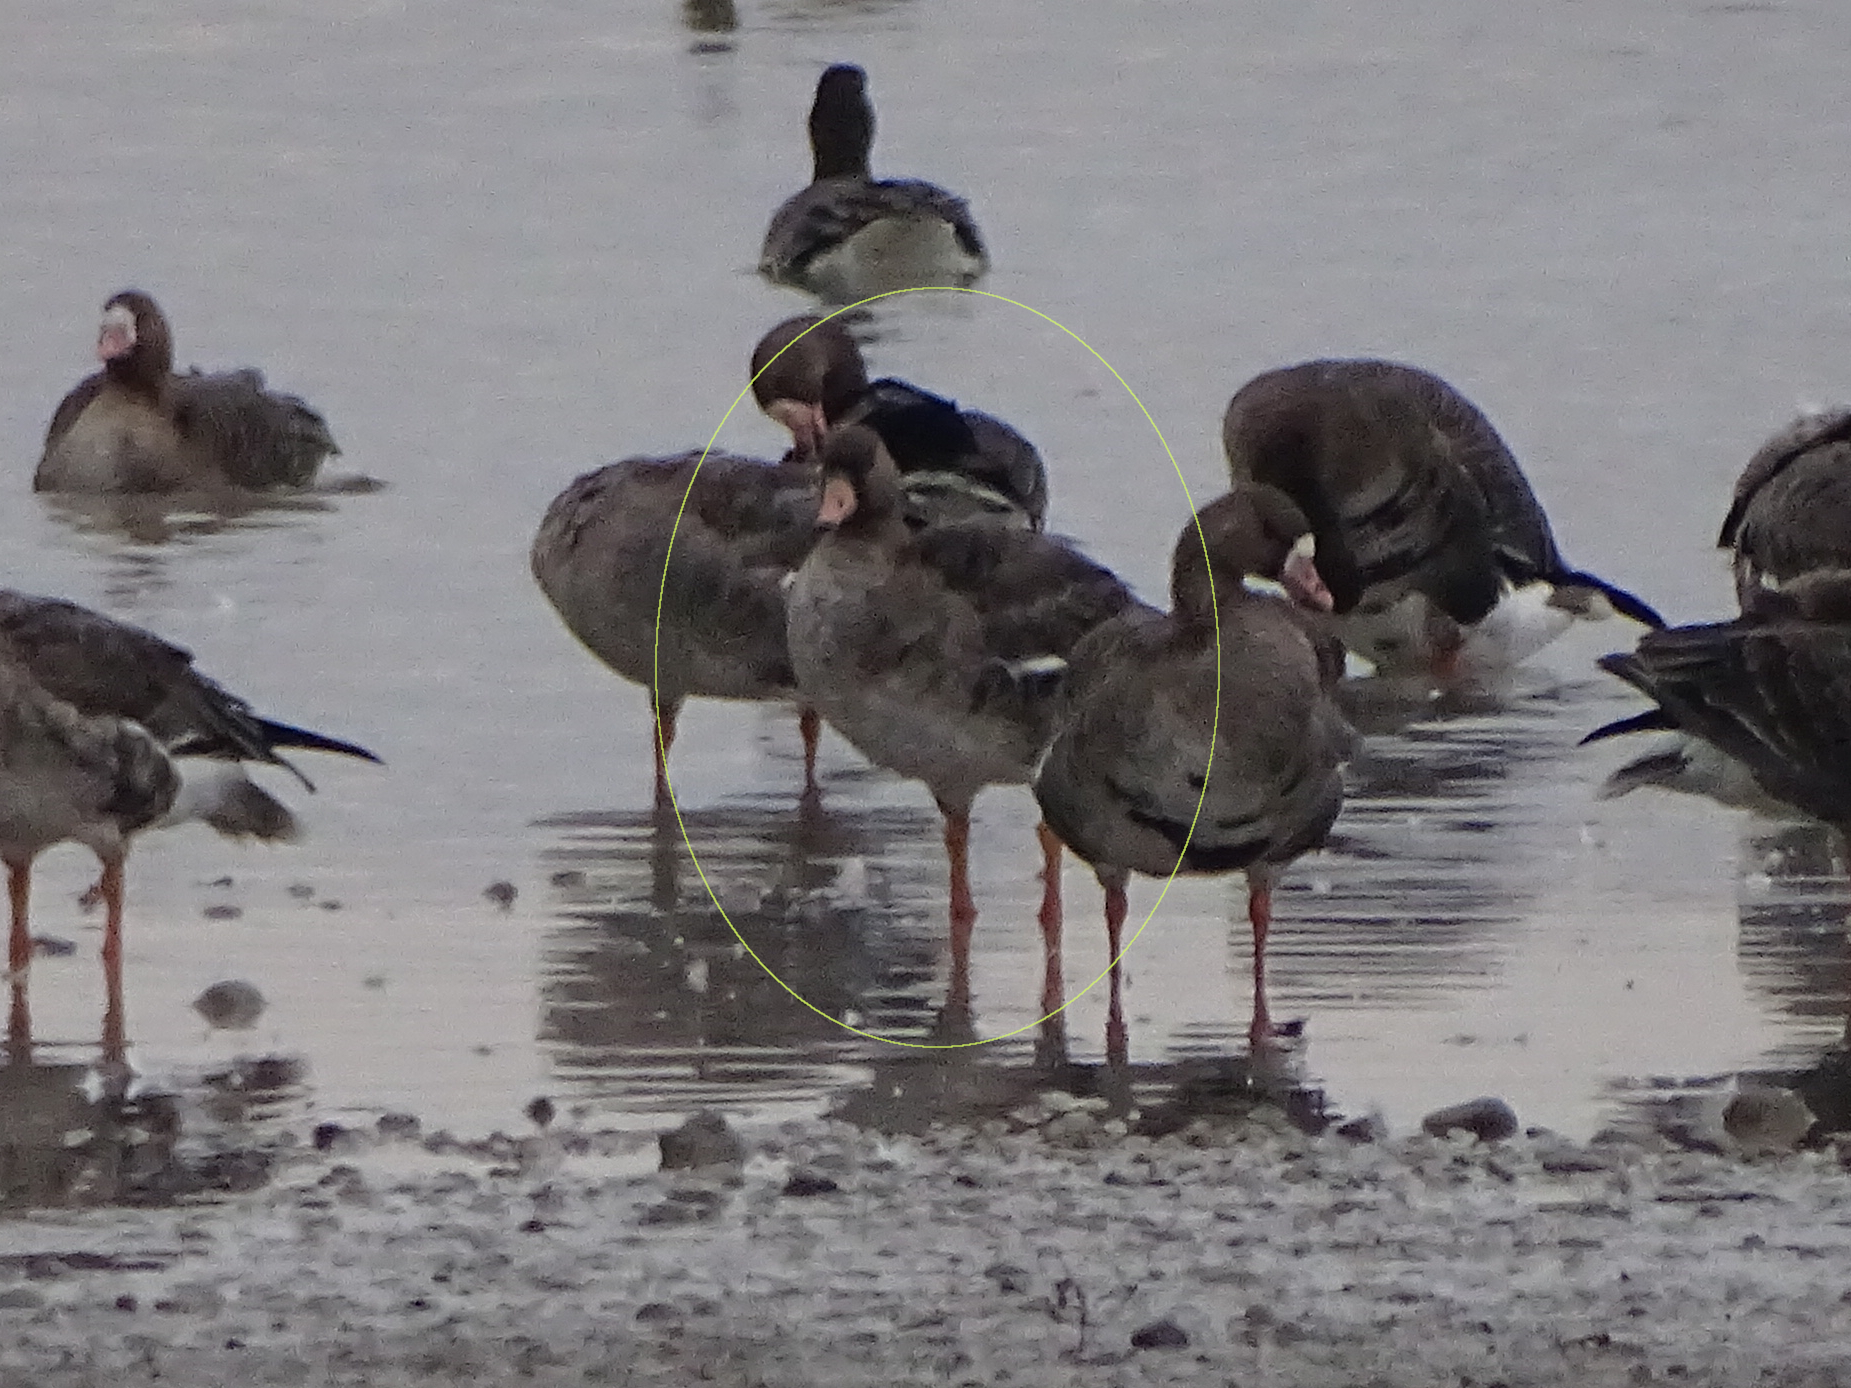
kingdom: Animalia
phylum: Chordata
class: Aves
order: Anseriformes
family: Anatidae
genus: Anser
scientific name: Anser albifrons
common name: Greater white-fronted goose
